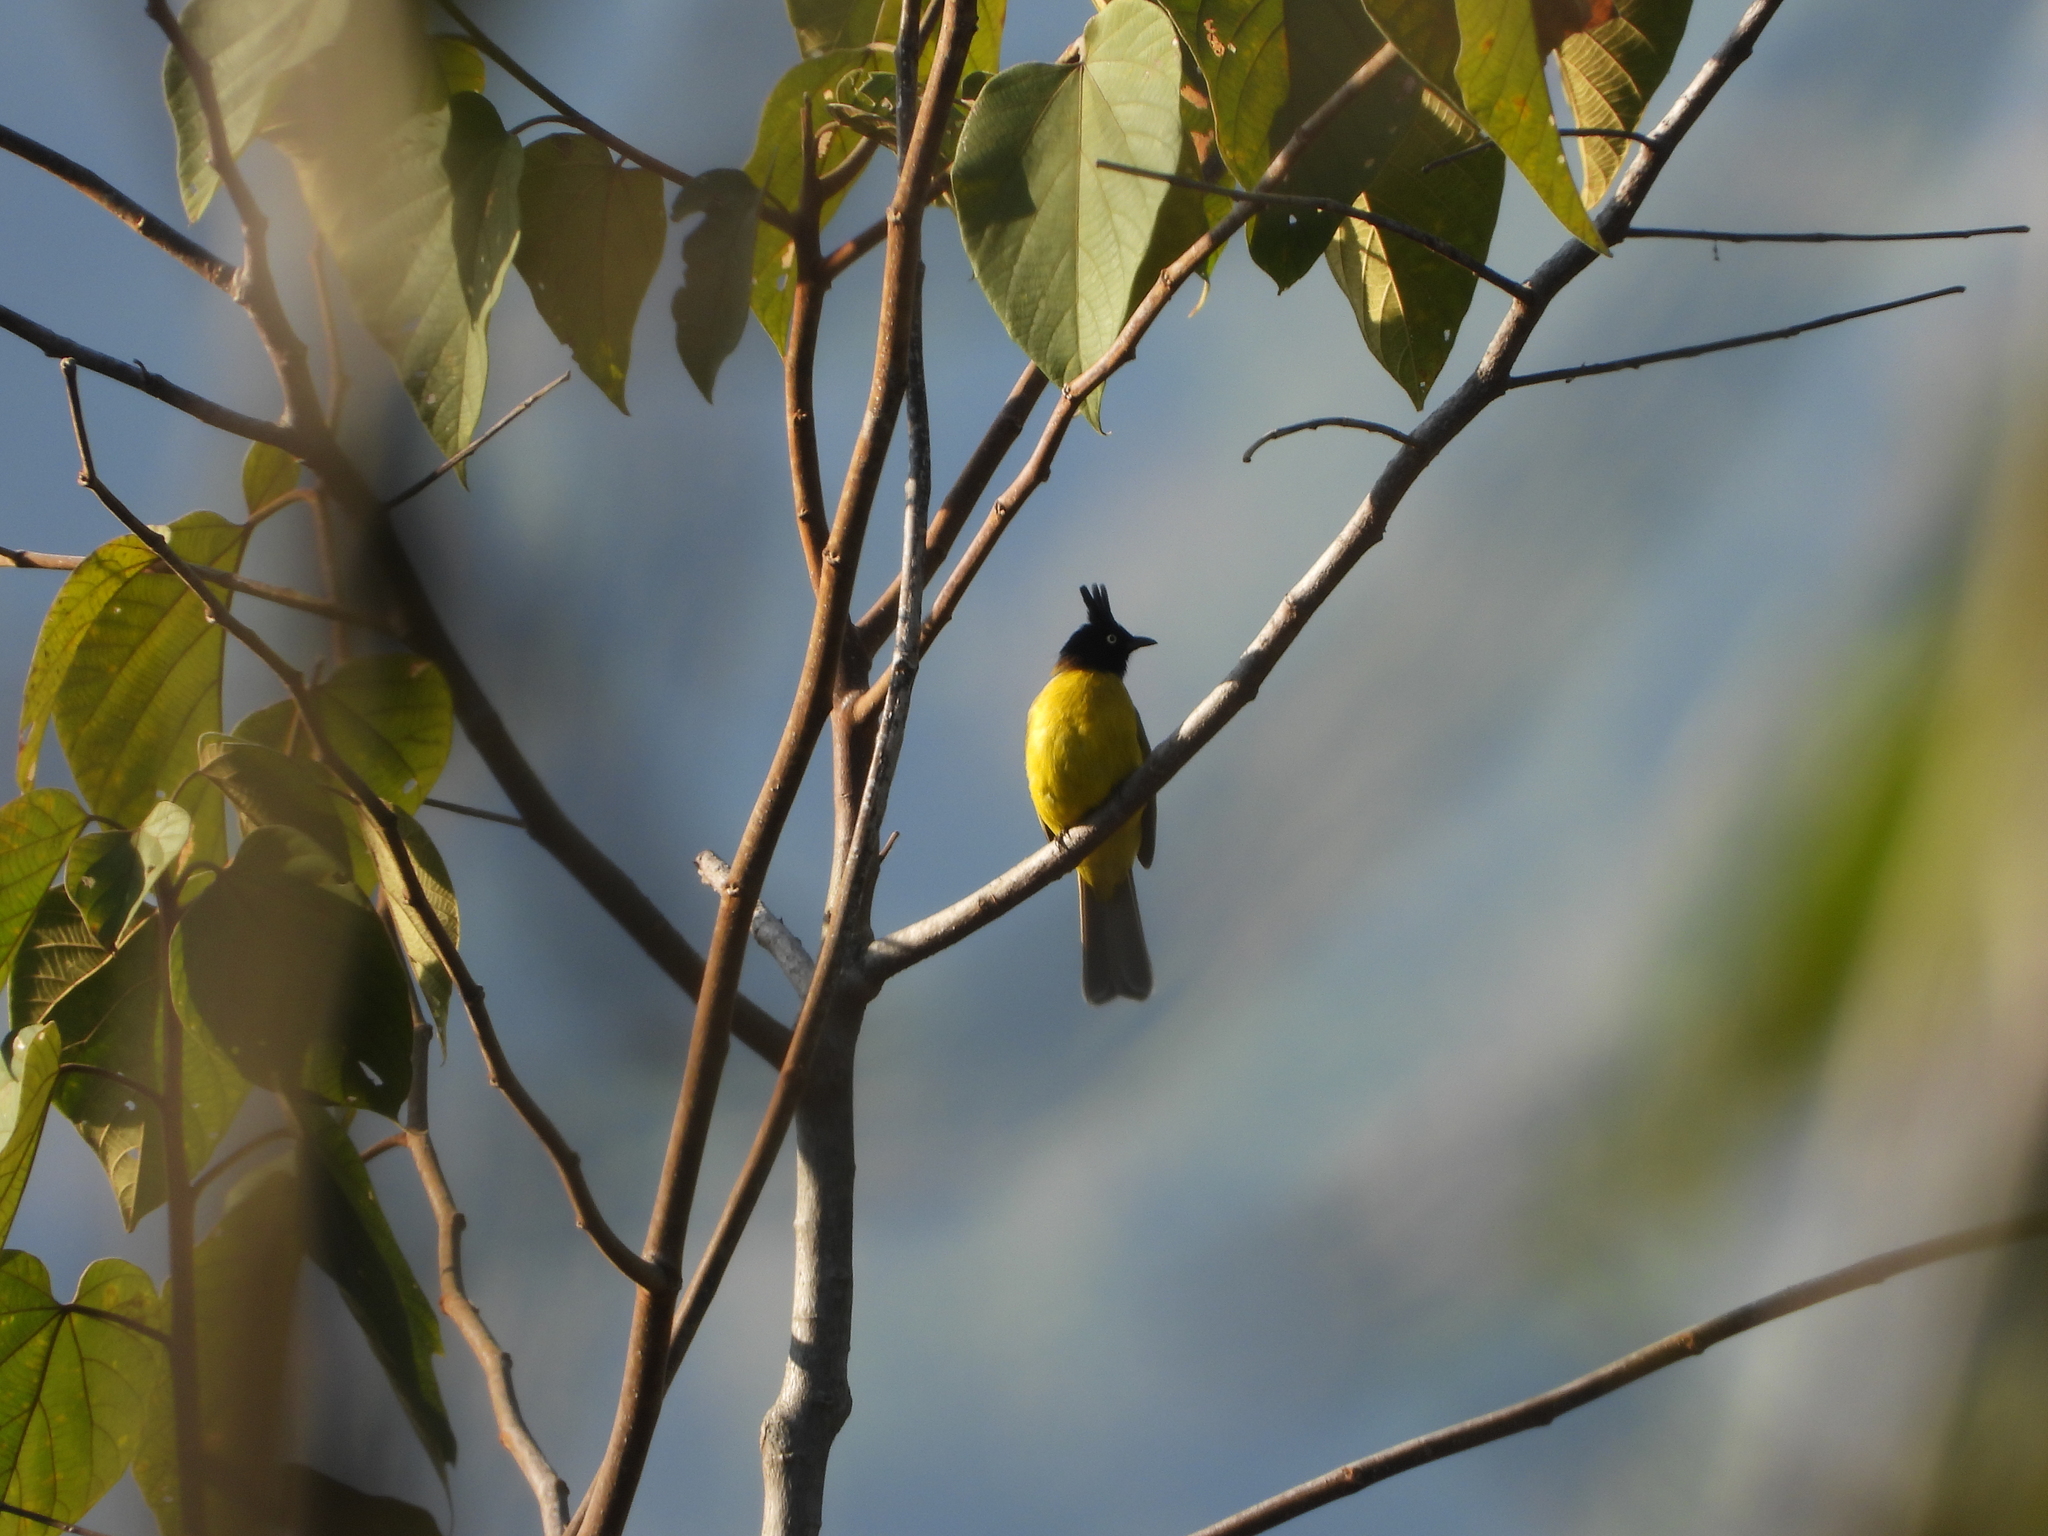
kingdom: Animalia
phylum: Chordata
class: Aves
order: Passeriformes
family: Pycnonotidae
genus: Pycnonotus
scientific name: Pycnonotus flaviventris
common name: Black-crested bulbul
